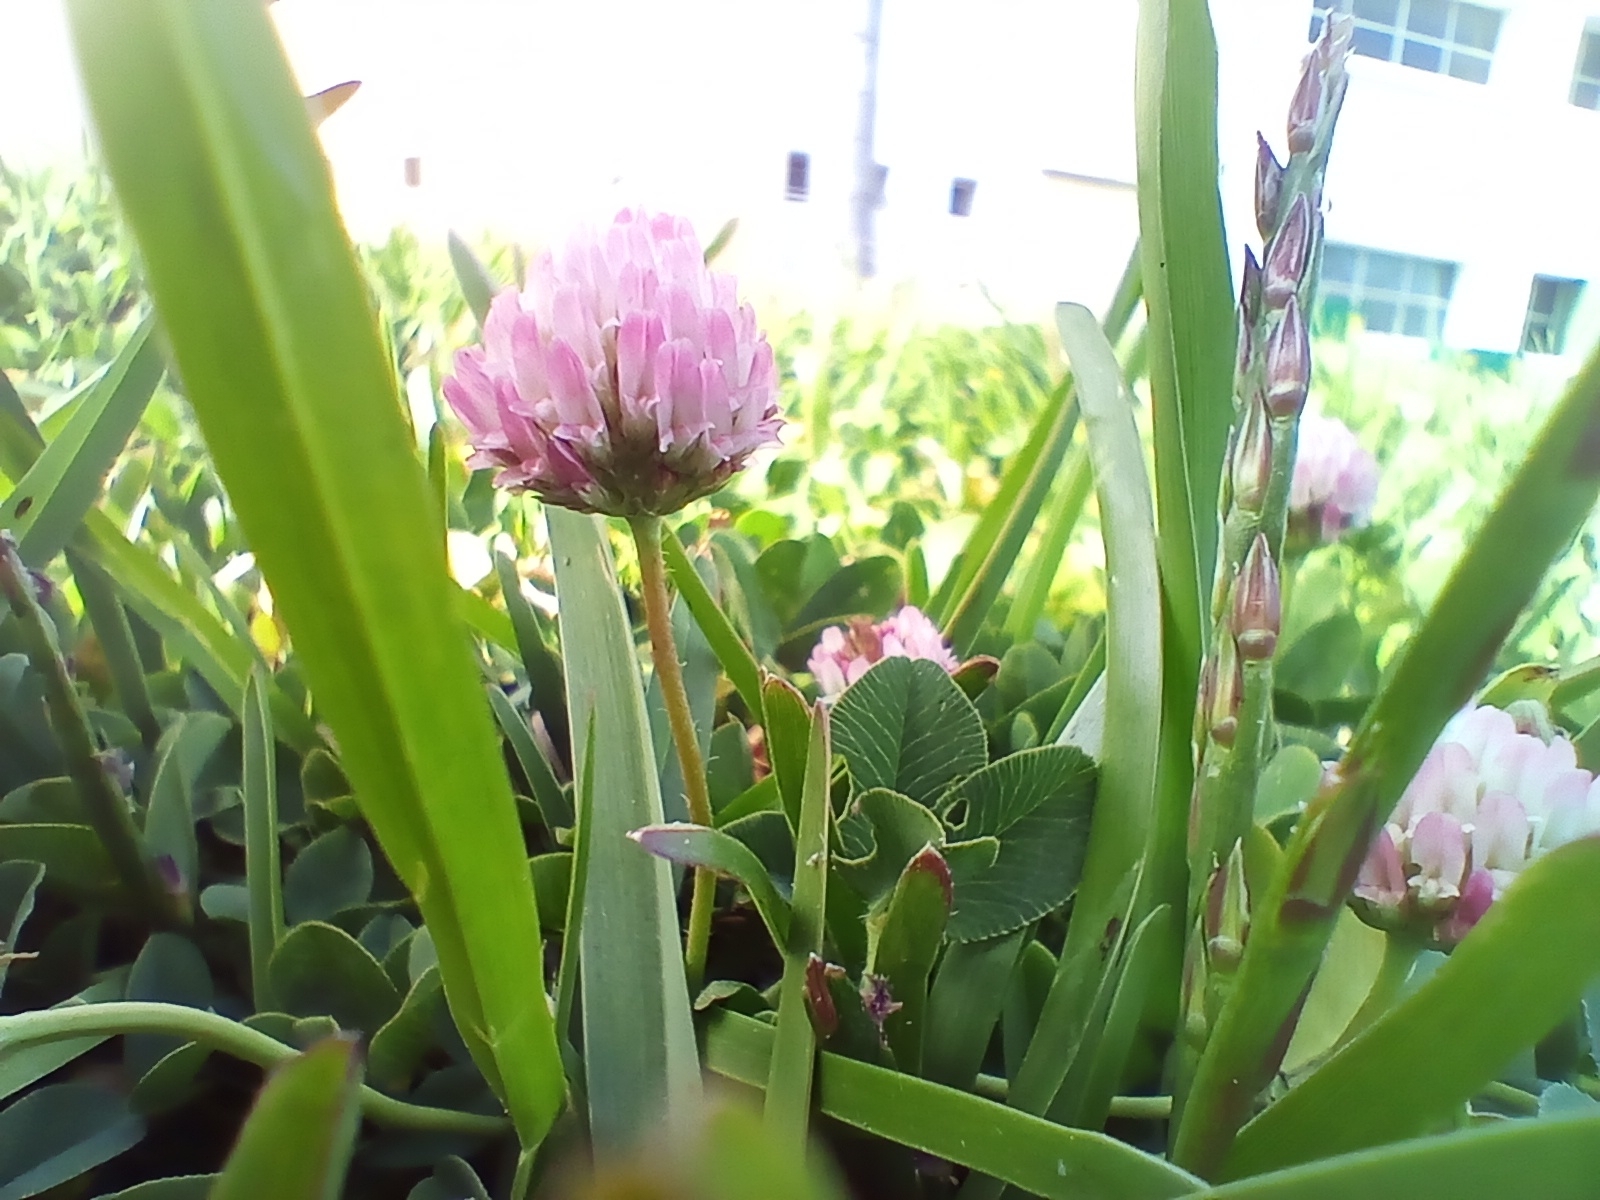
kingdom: Plantae
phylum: Tracheophyta
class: Magnoliopsida
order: Fabales
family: Fabaceae
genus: Trifolium
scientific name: Trifolium fragiferum
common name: Strawberry clover
